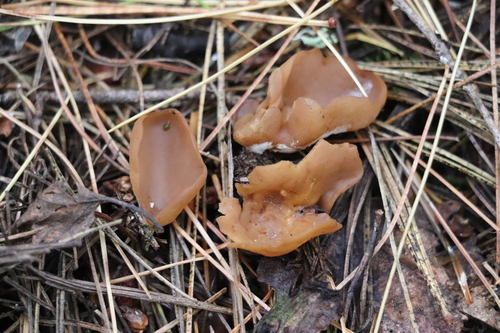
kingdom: Fungi
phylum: Ascomycota
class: Pezizomycetes
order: Pezizales
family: Otideaceae
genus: Otidea
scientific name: Otidea
